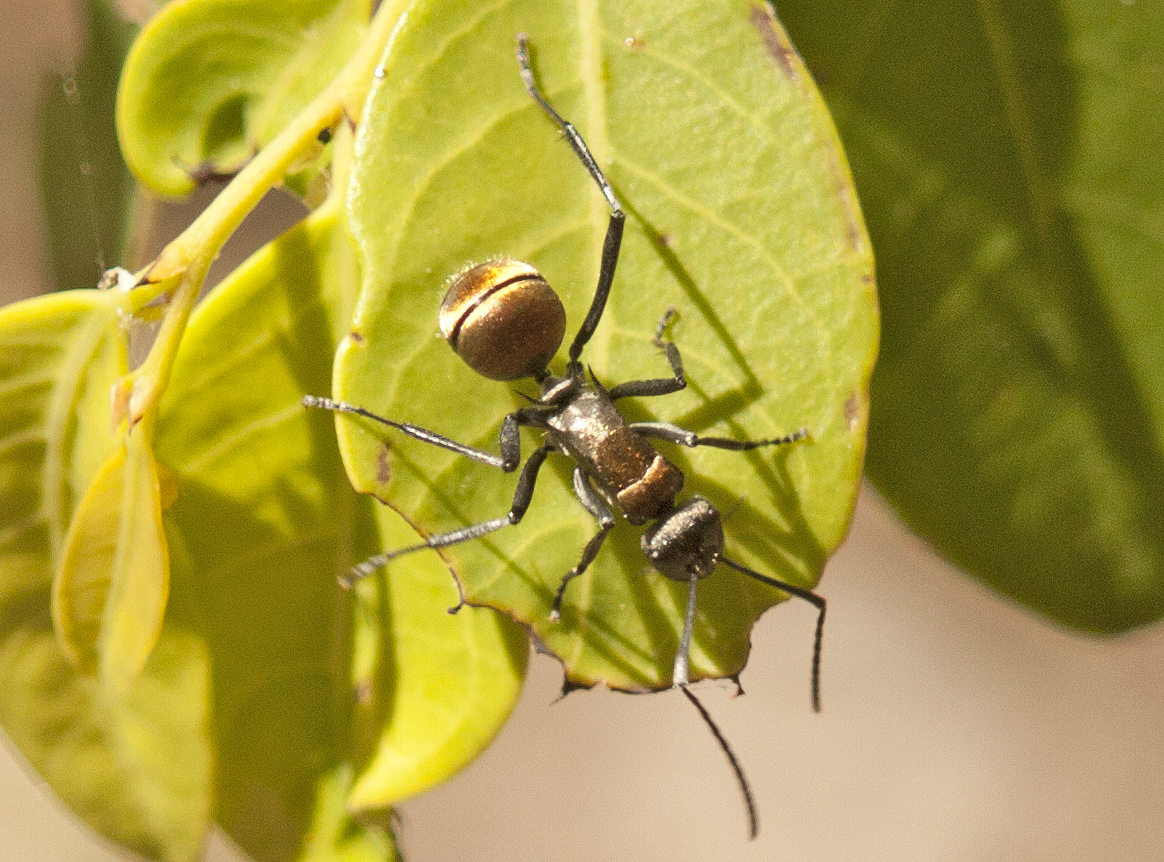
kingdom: Animalia
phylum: Arthropoda
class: Insecta
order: Hymenoptera
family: Formicidae
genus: Polyrhachis
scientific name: Polyrhachis ammon
